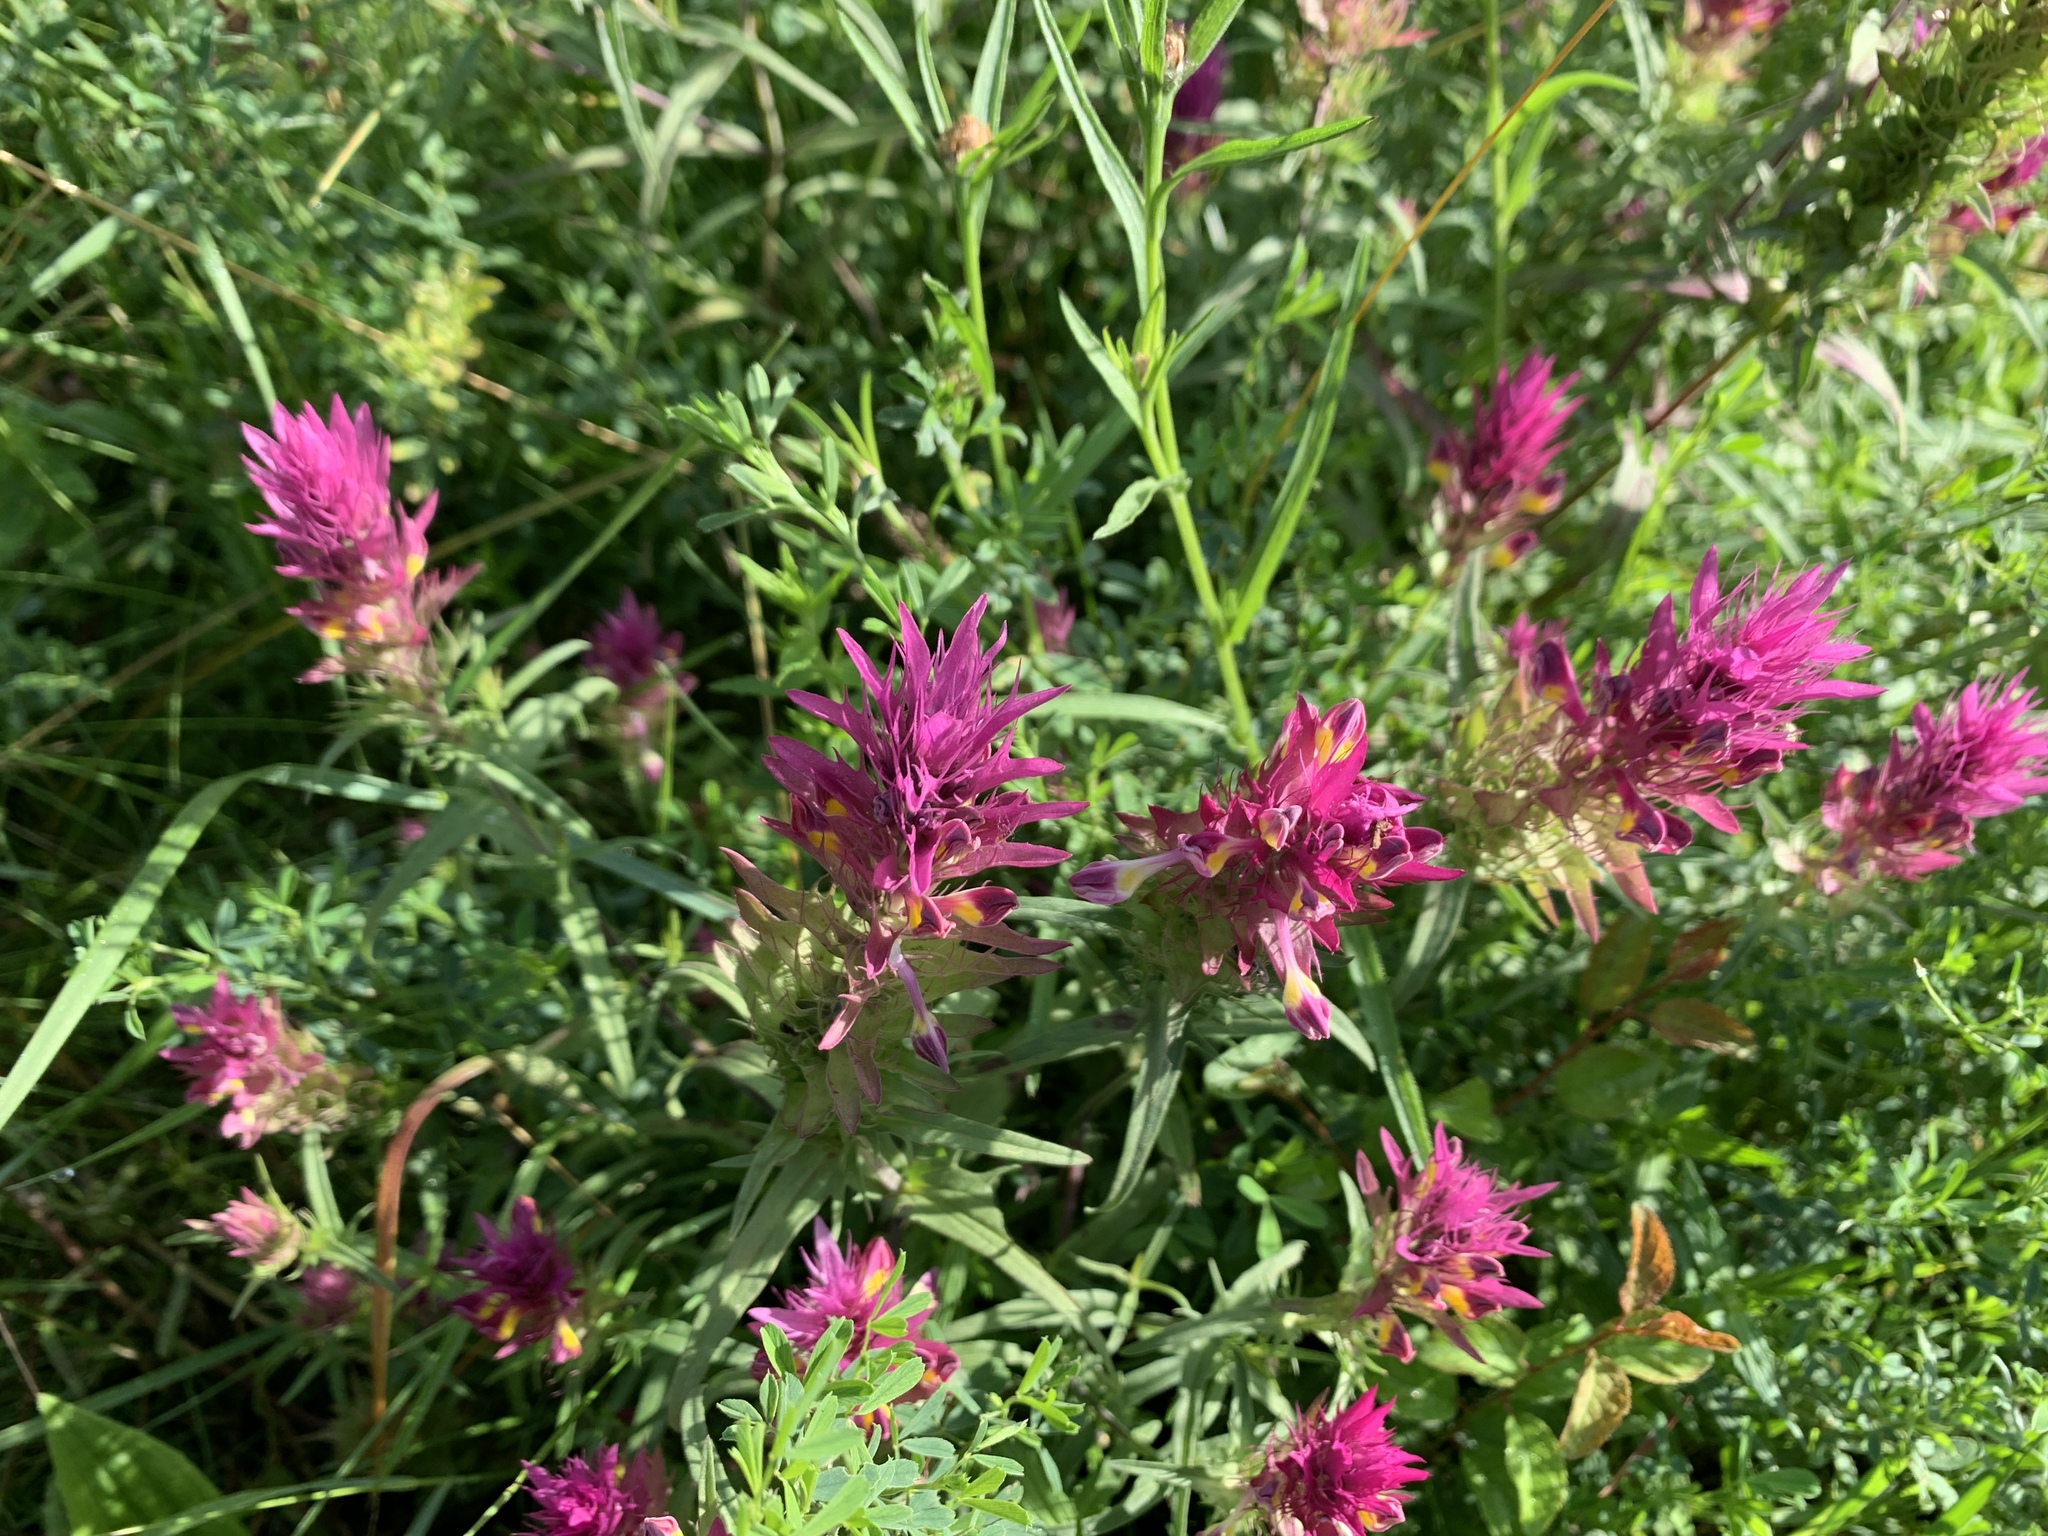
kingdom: Plantae
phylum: Tracheophyta
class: Magnoliopsida
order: Lamiales
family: Orobanchaceae
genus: Melampyrum
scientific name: Melampyrum arvense
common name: Field cow-wheat
